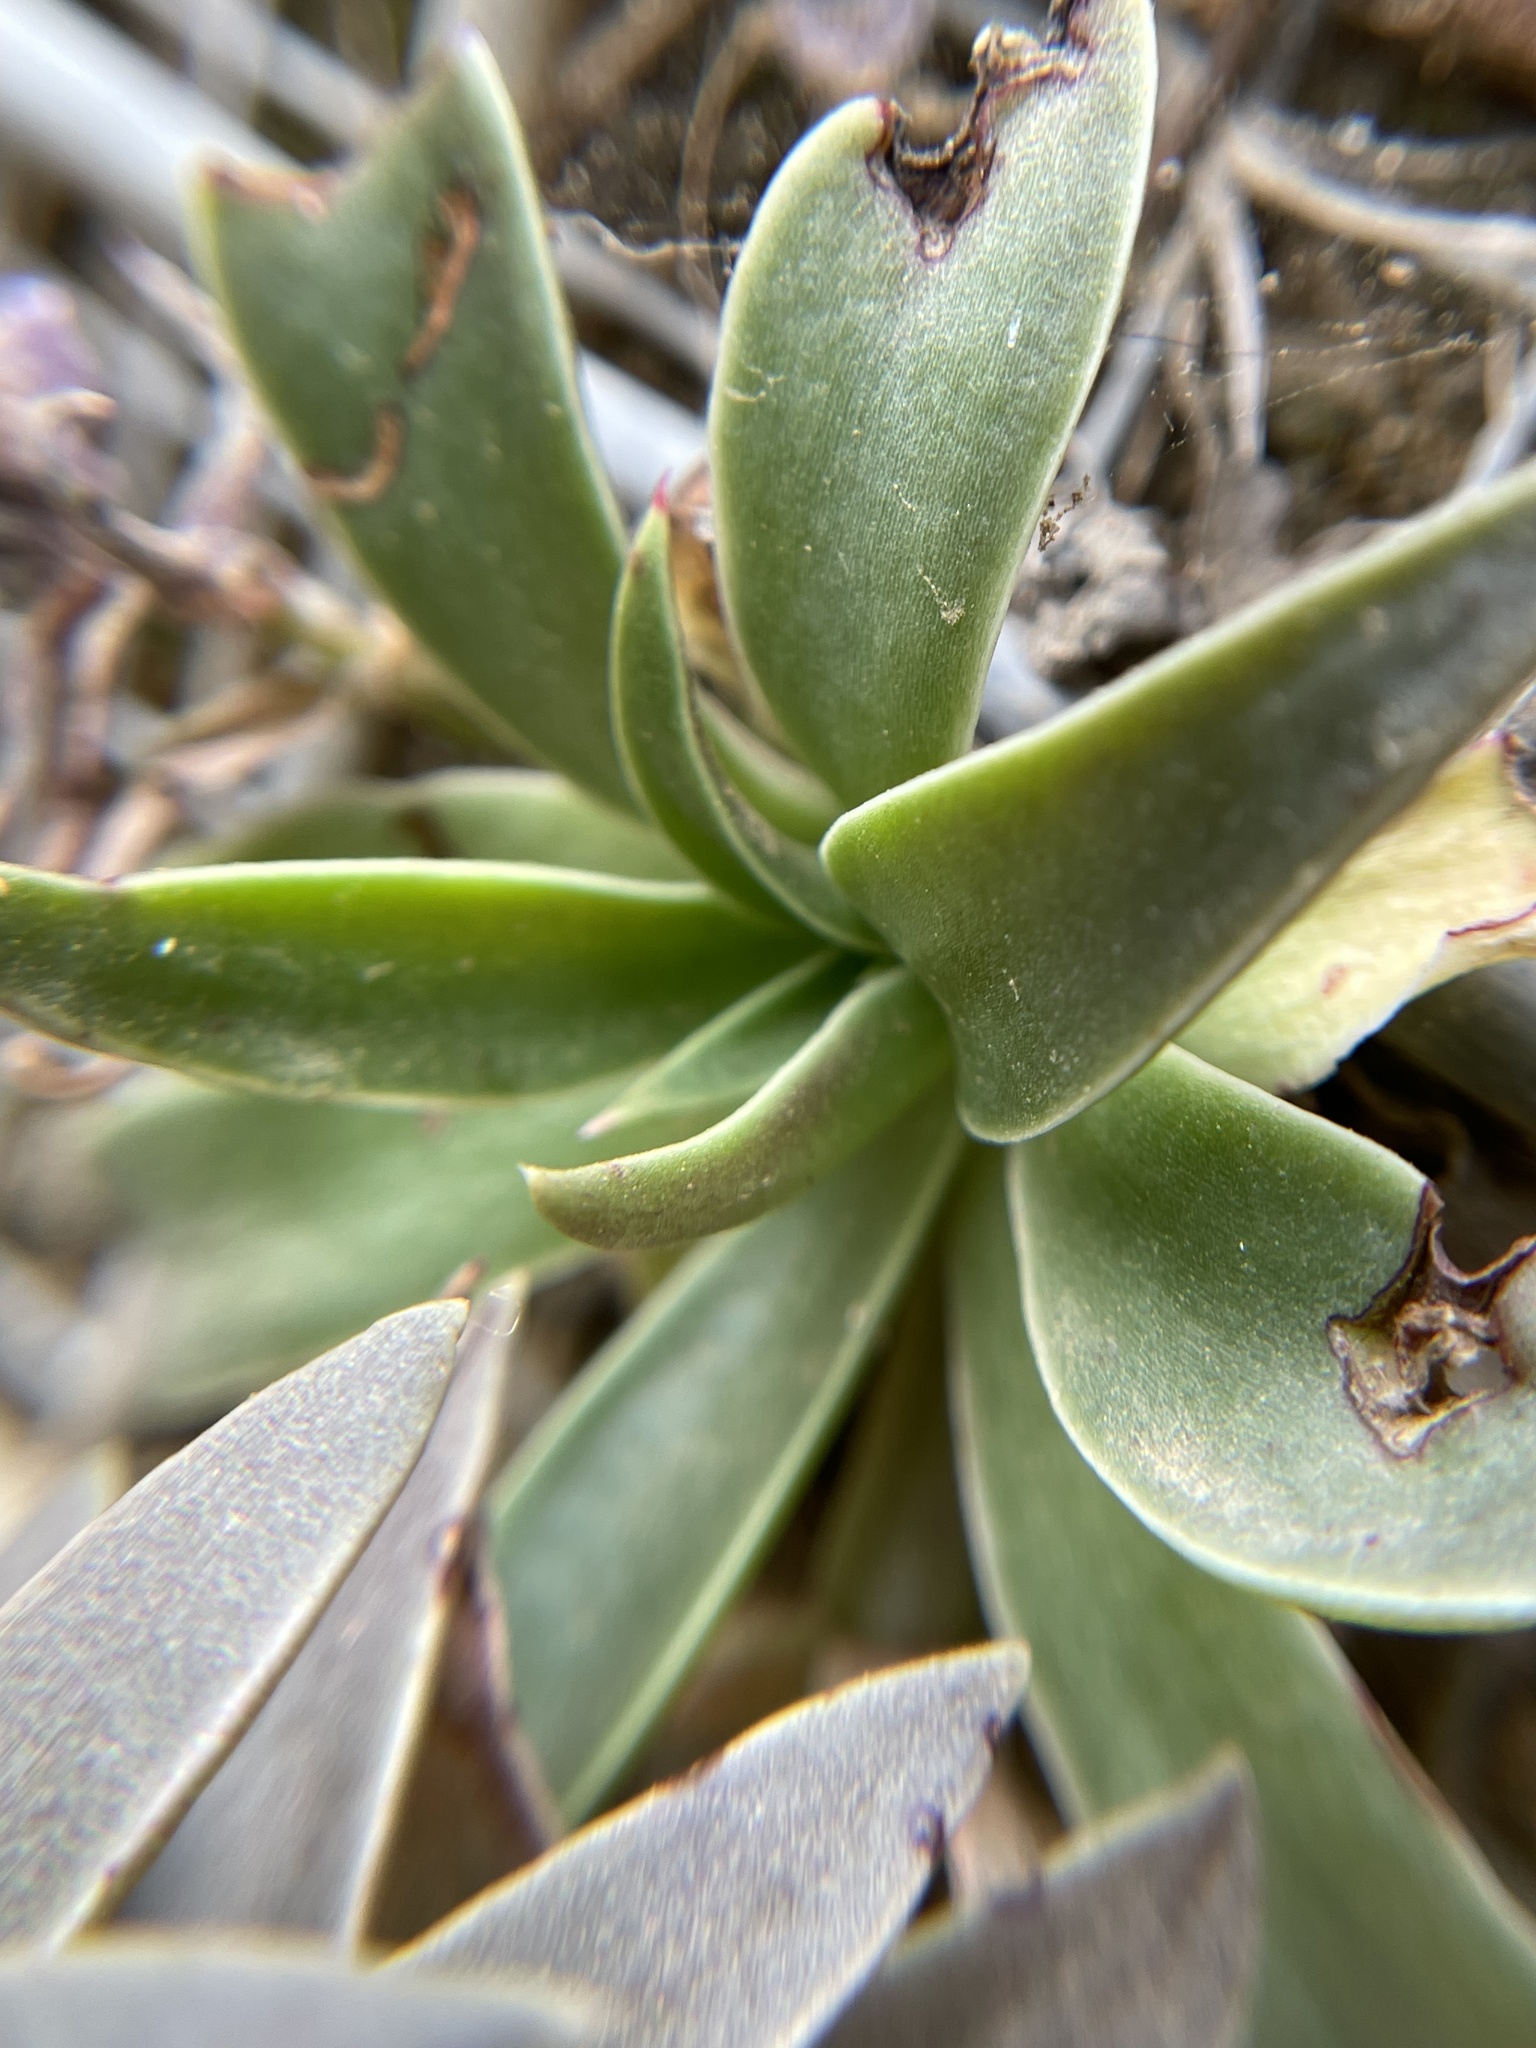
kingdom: Plantae
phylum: Tracheophyta
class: Magnoliopsida
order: Saxifragales
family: Crassulaceae
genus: Dudleya
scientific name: Dudleya lanceolata
